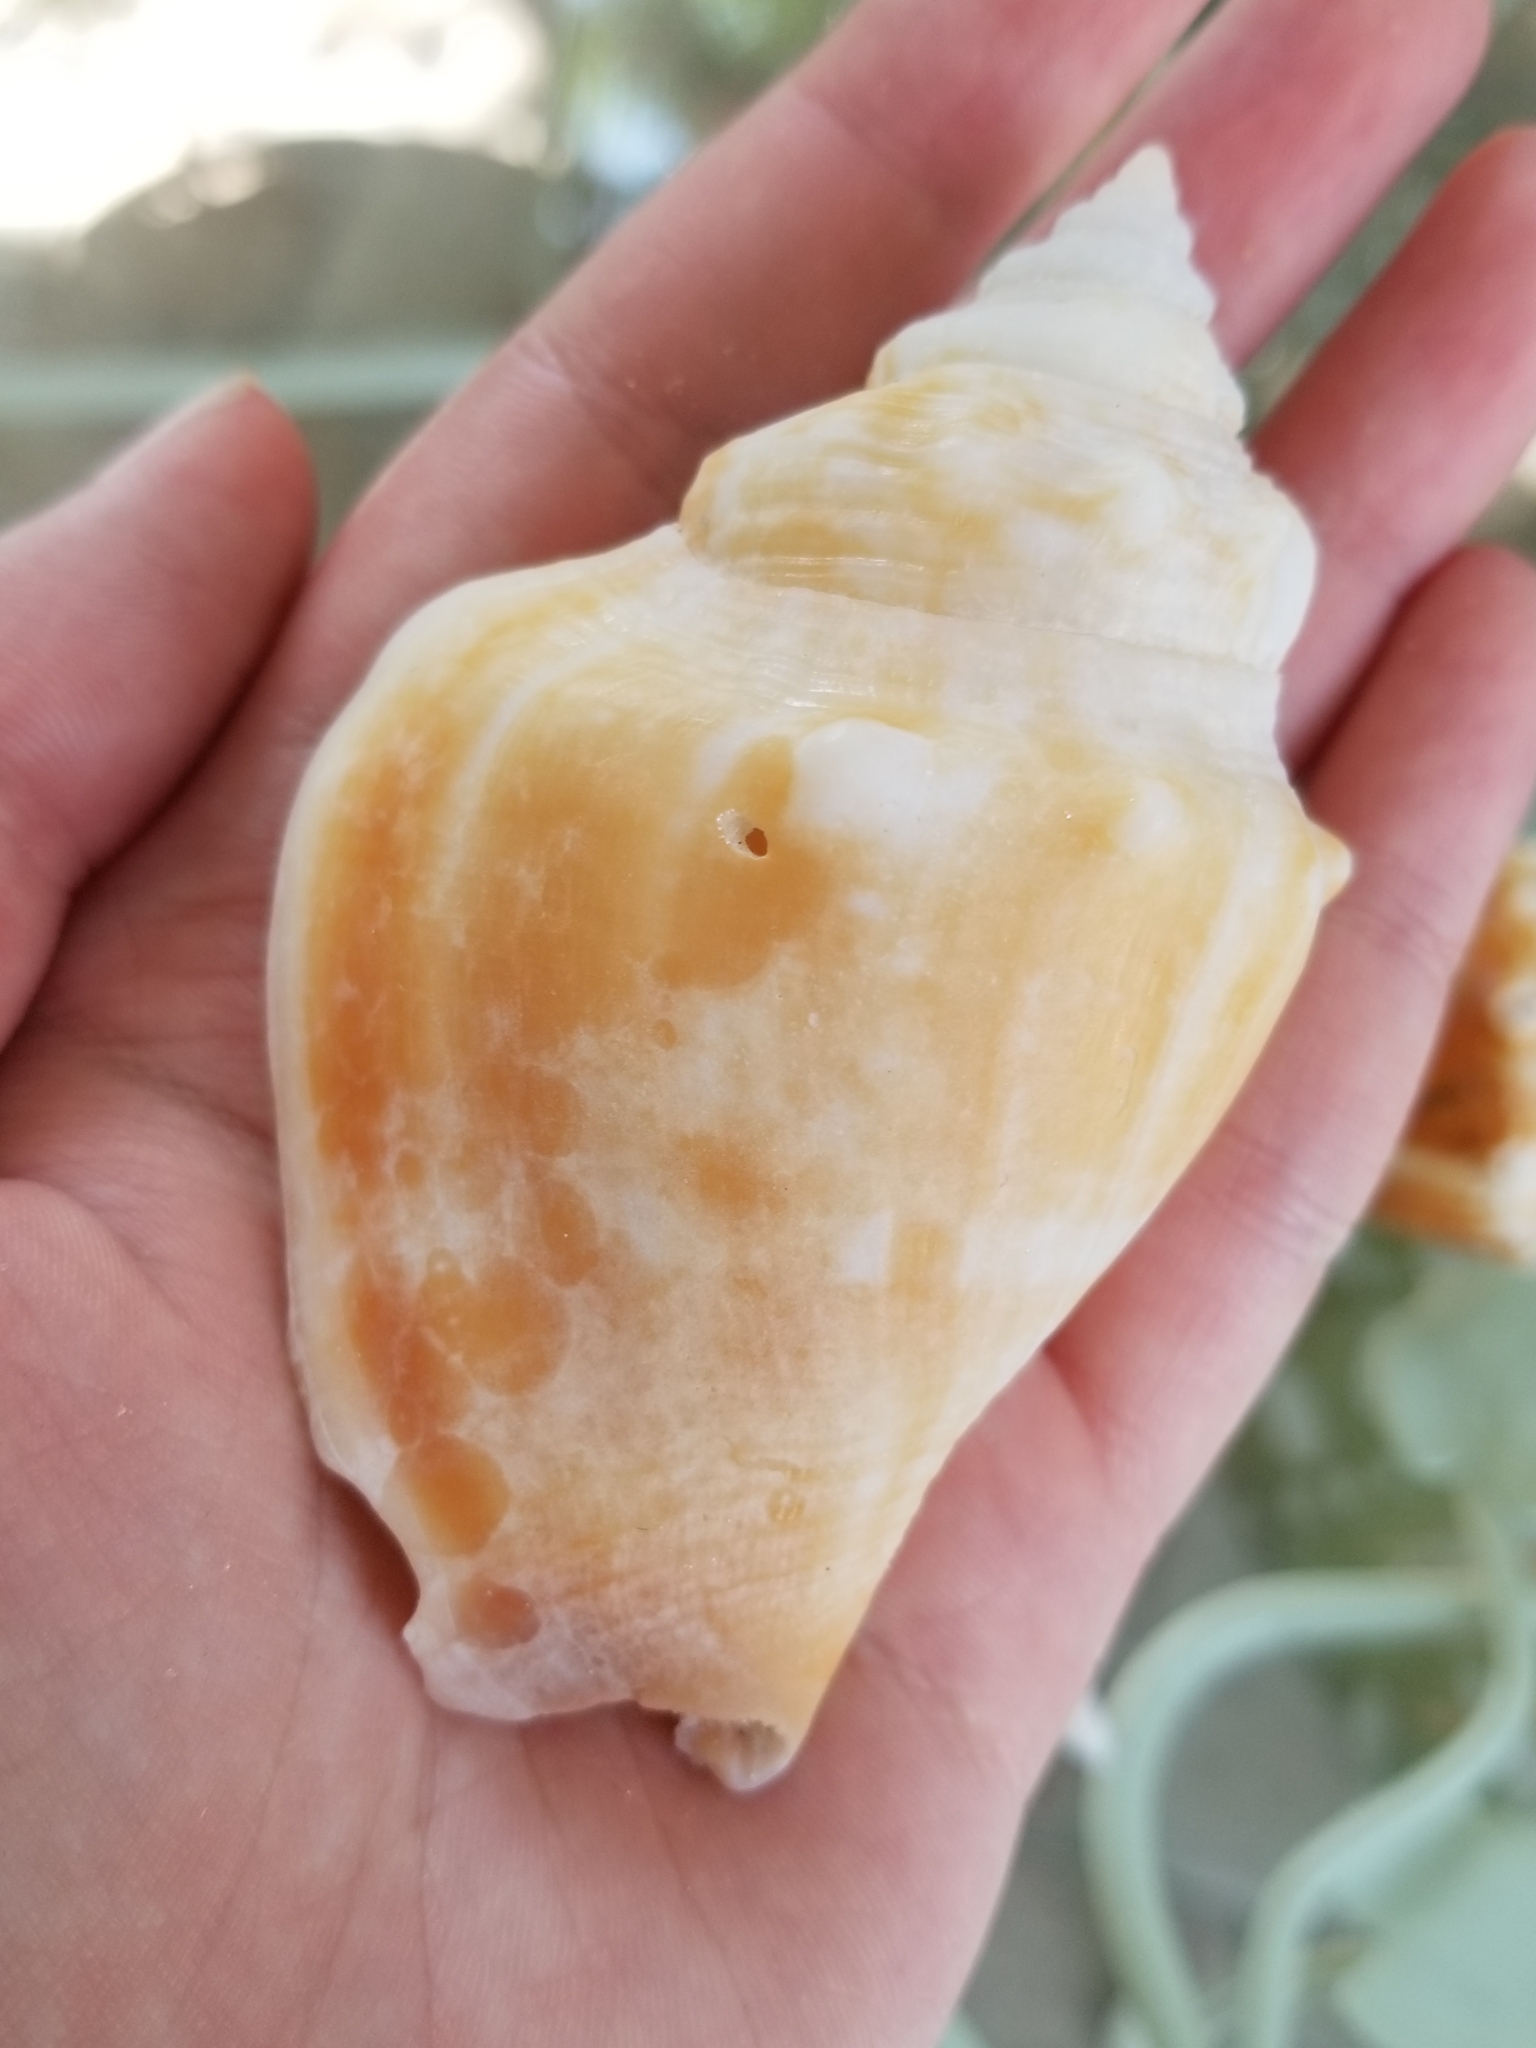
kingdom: Animalia
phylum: Mollusca
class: Gastropoda
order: Littorinimorpha
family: Strombidae
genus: Strombus
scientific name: Strombus alatus
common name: Florida fighting conch
